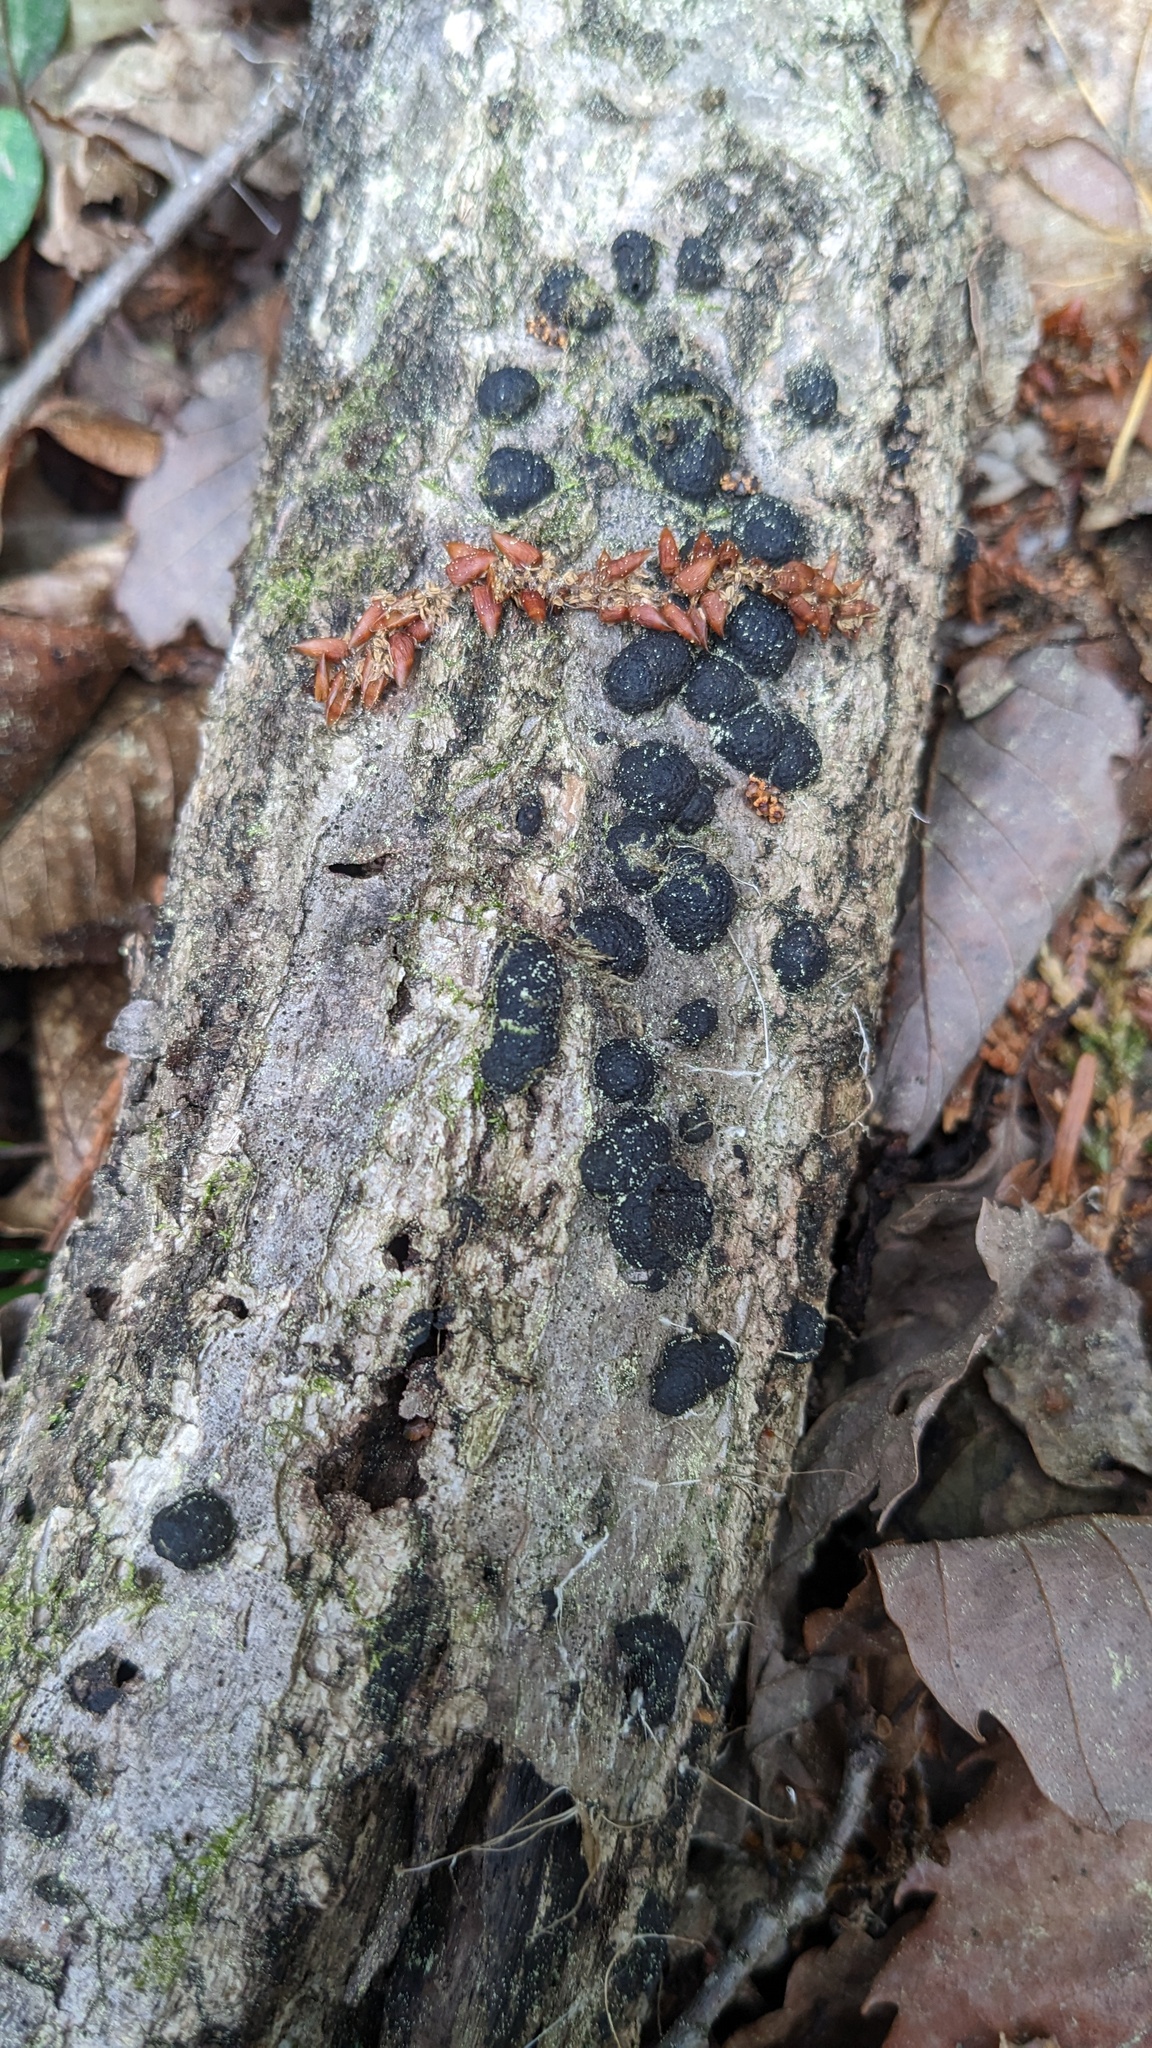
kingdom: Fungi
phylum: Ascomycota
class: Sordariomycetes
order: Xylariales
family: Hypoxylaceae
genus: Annulohypoxylon
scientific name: Annulohypoxylon truncatum
